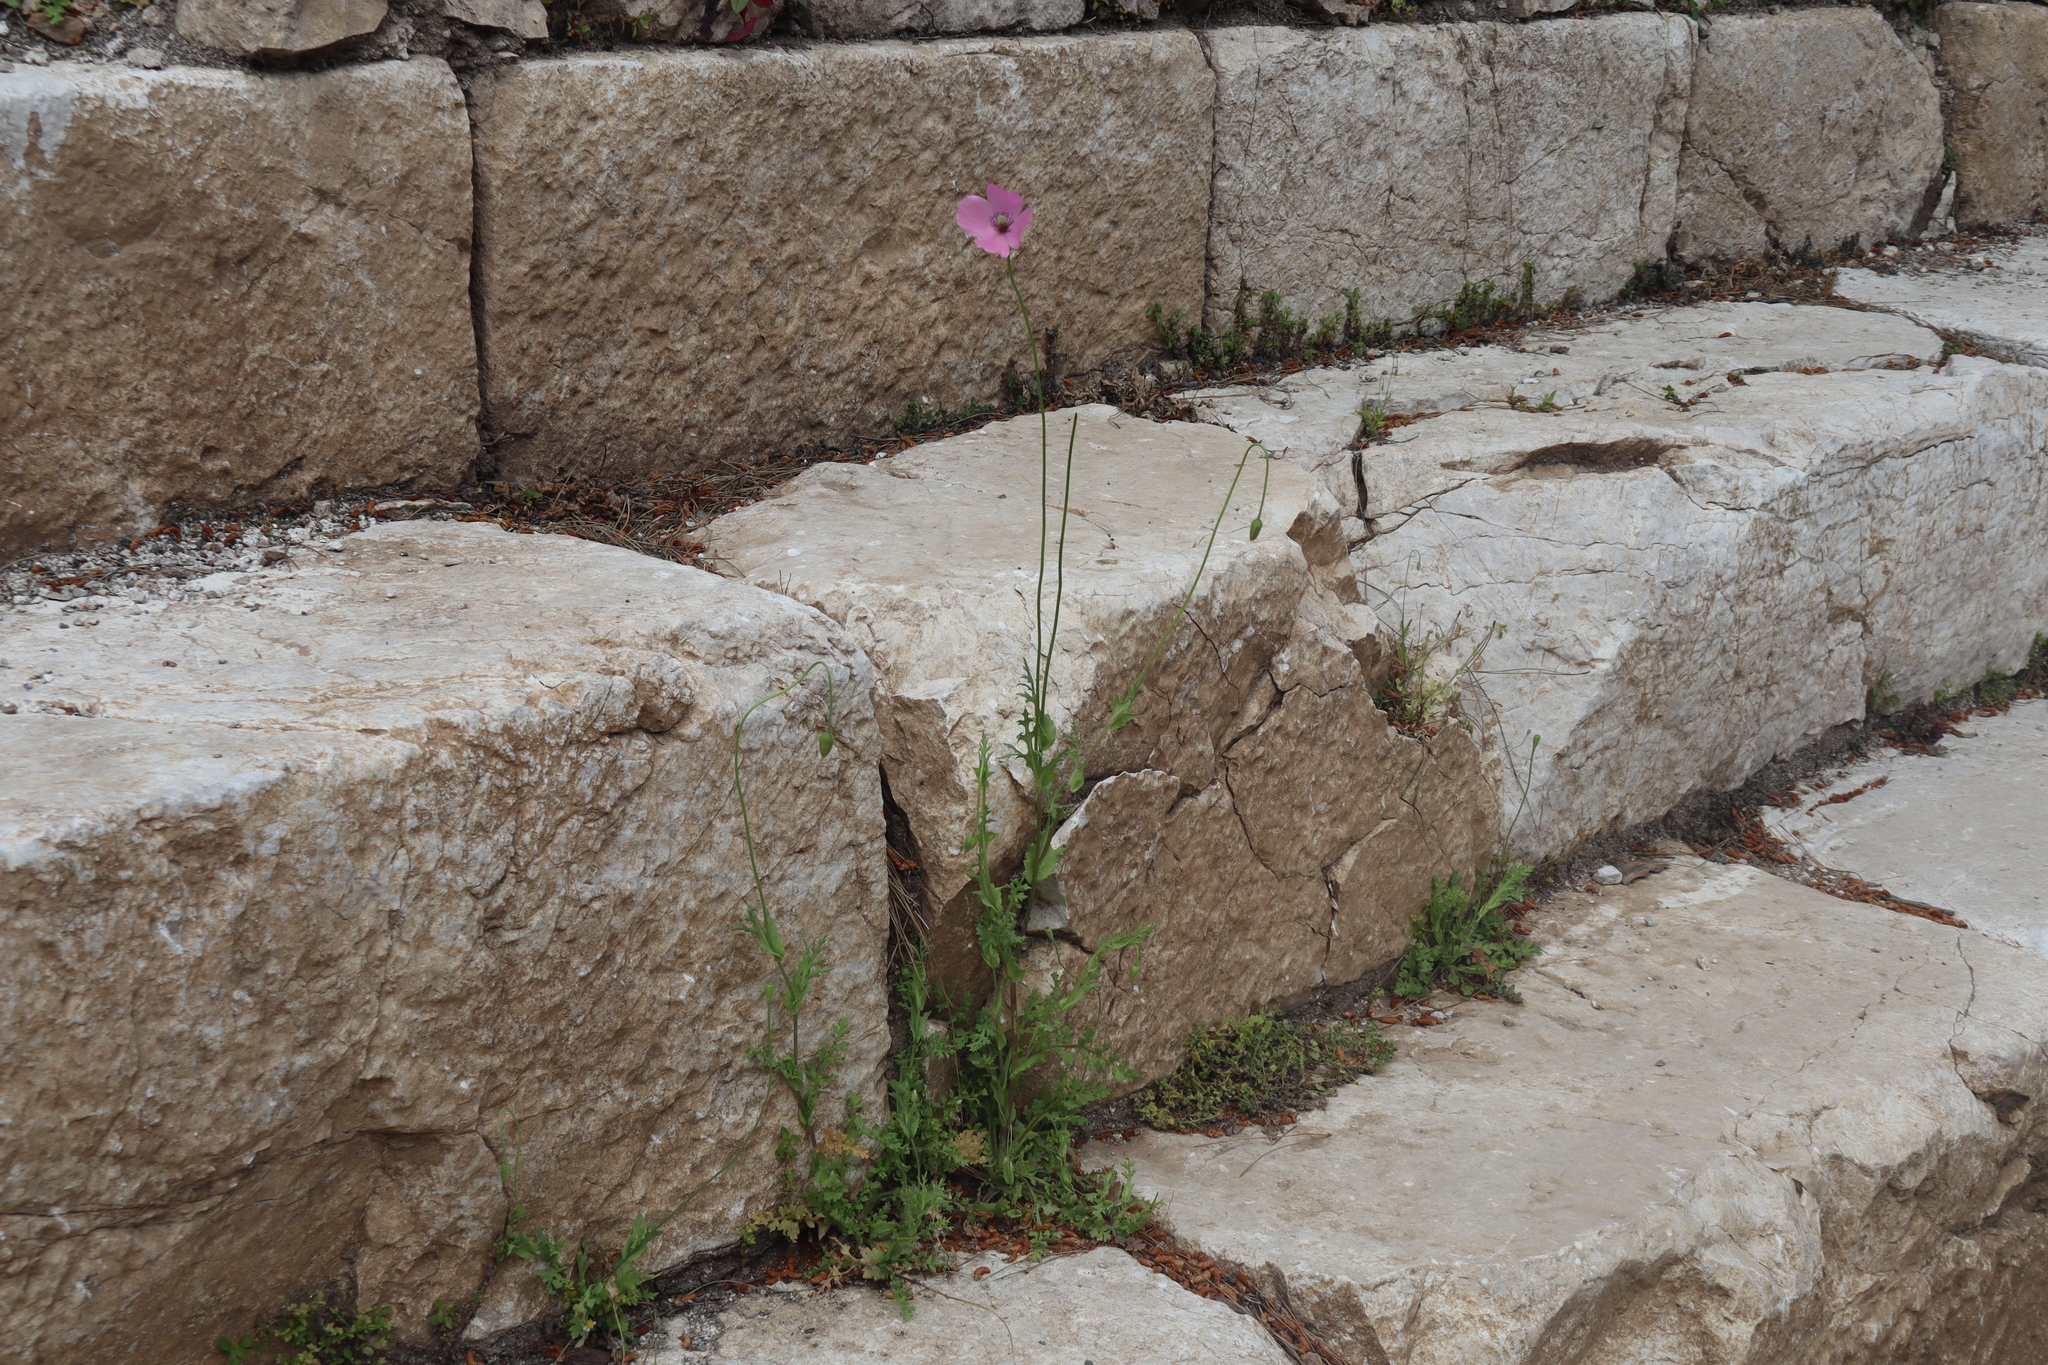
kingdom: Plantae
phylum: Tracheophyta
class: Magnoliopsida
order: Ranunculales
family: Papaveraceae
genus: Papaver
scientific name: Papaver gracile
